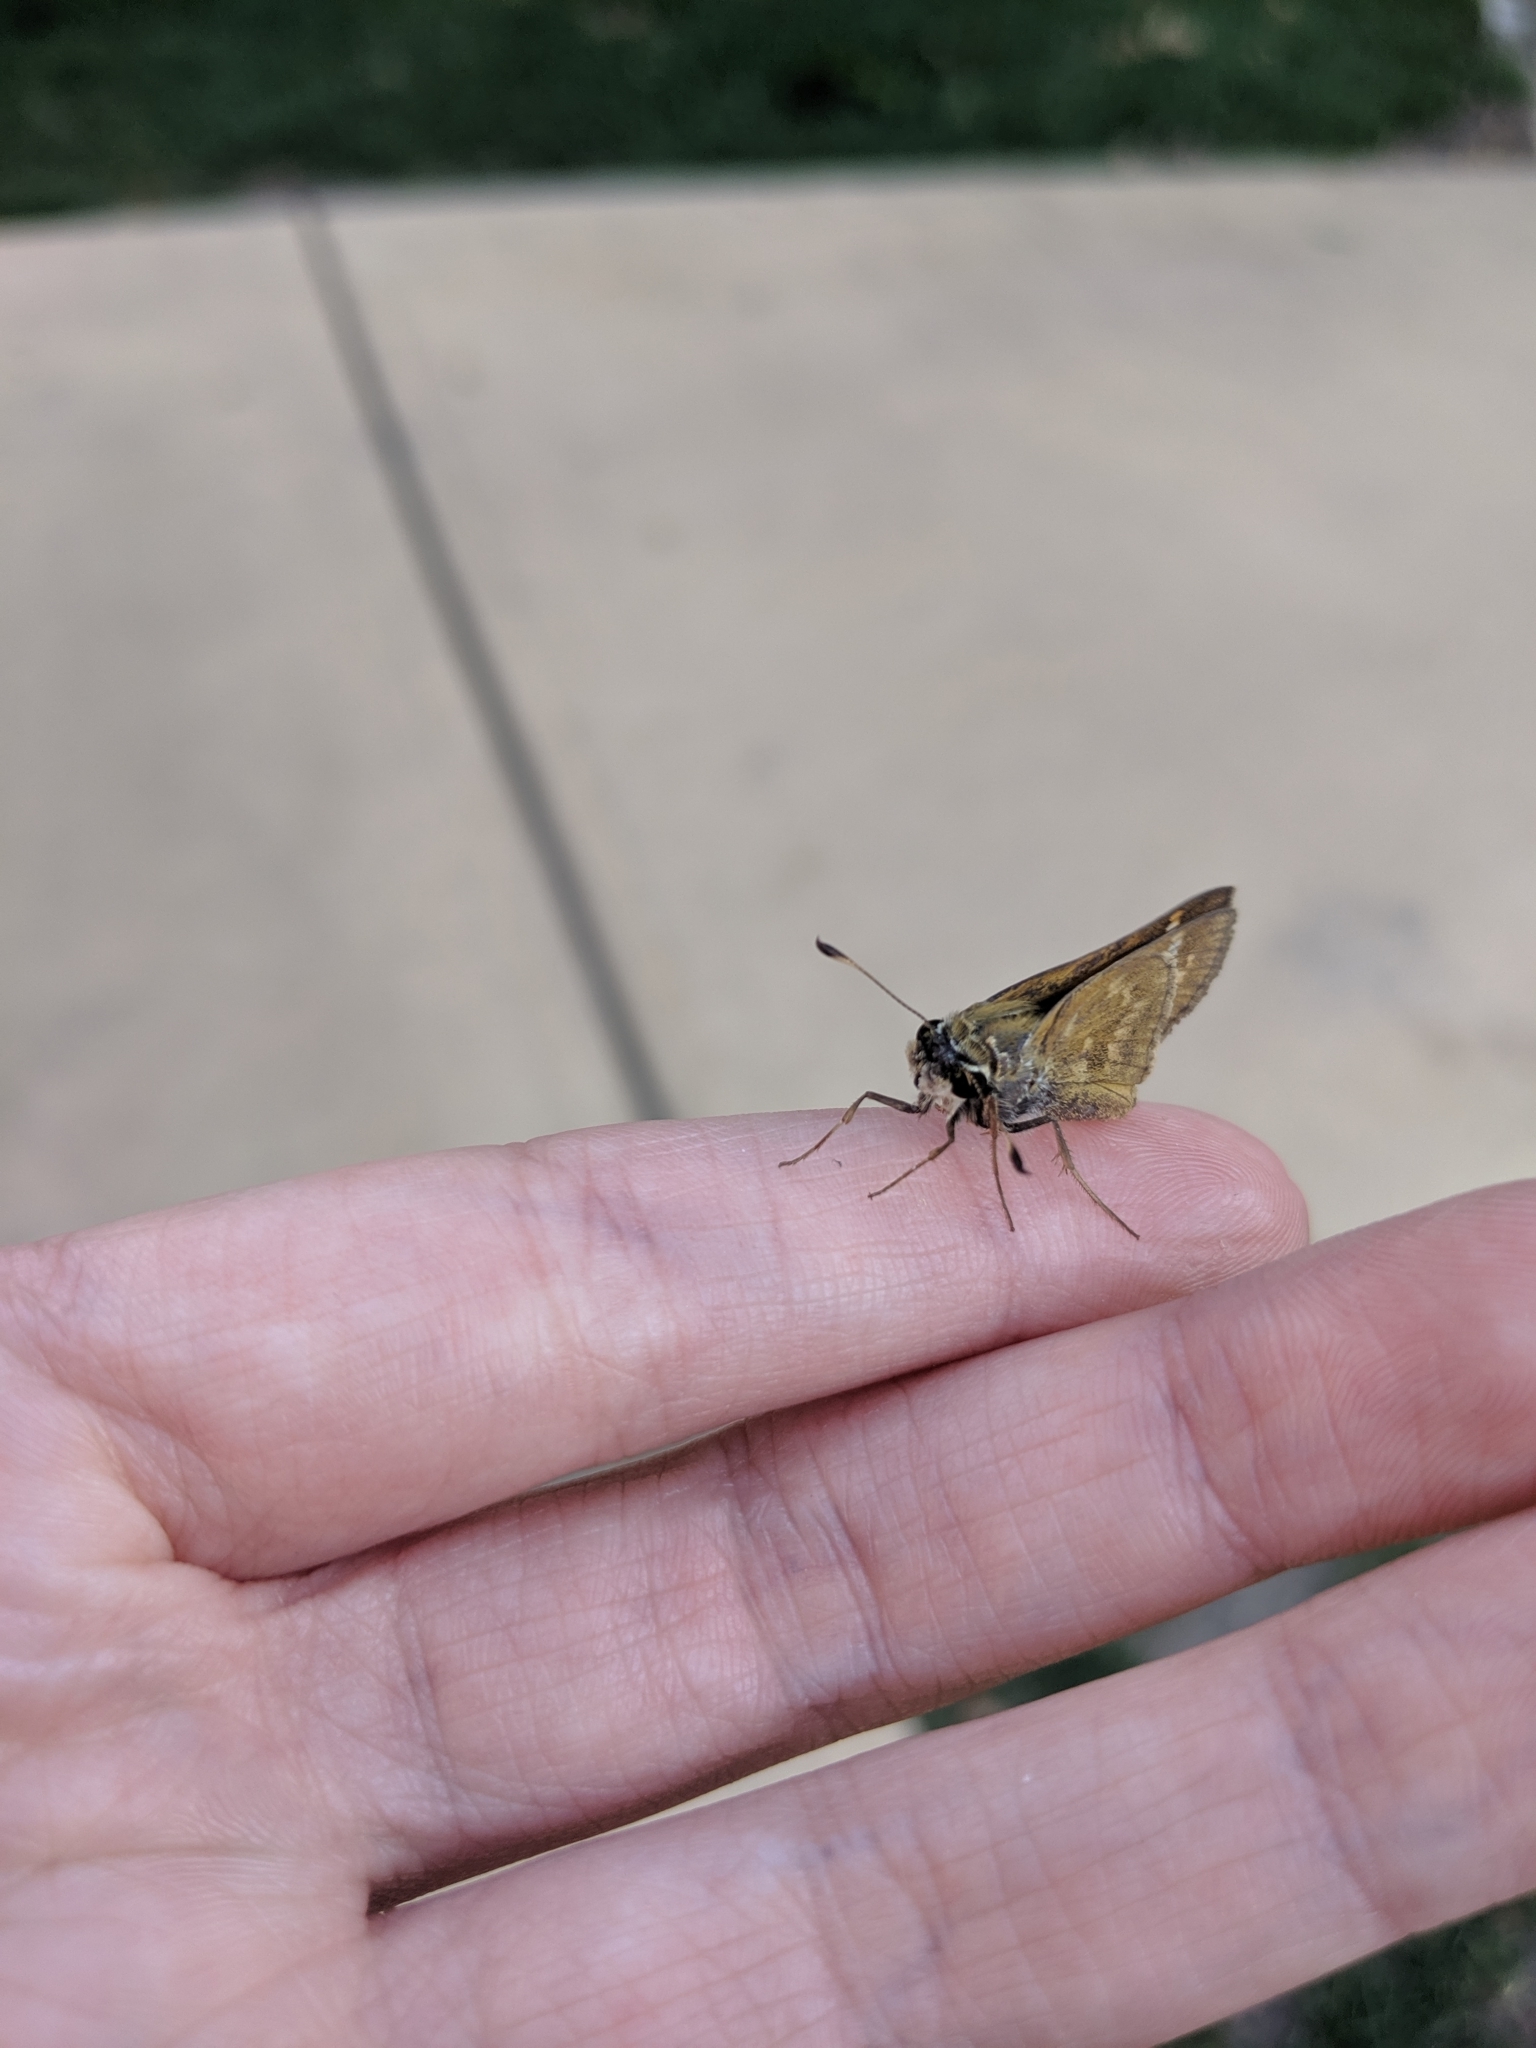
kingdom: Animalia
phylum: Arthropoda
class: Insecta
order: Lepidoptera
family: Hesperiidae
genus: Atalopedes
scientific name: Atalopedes
